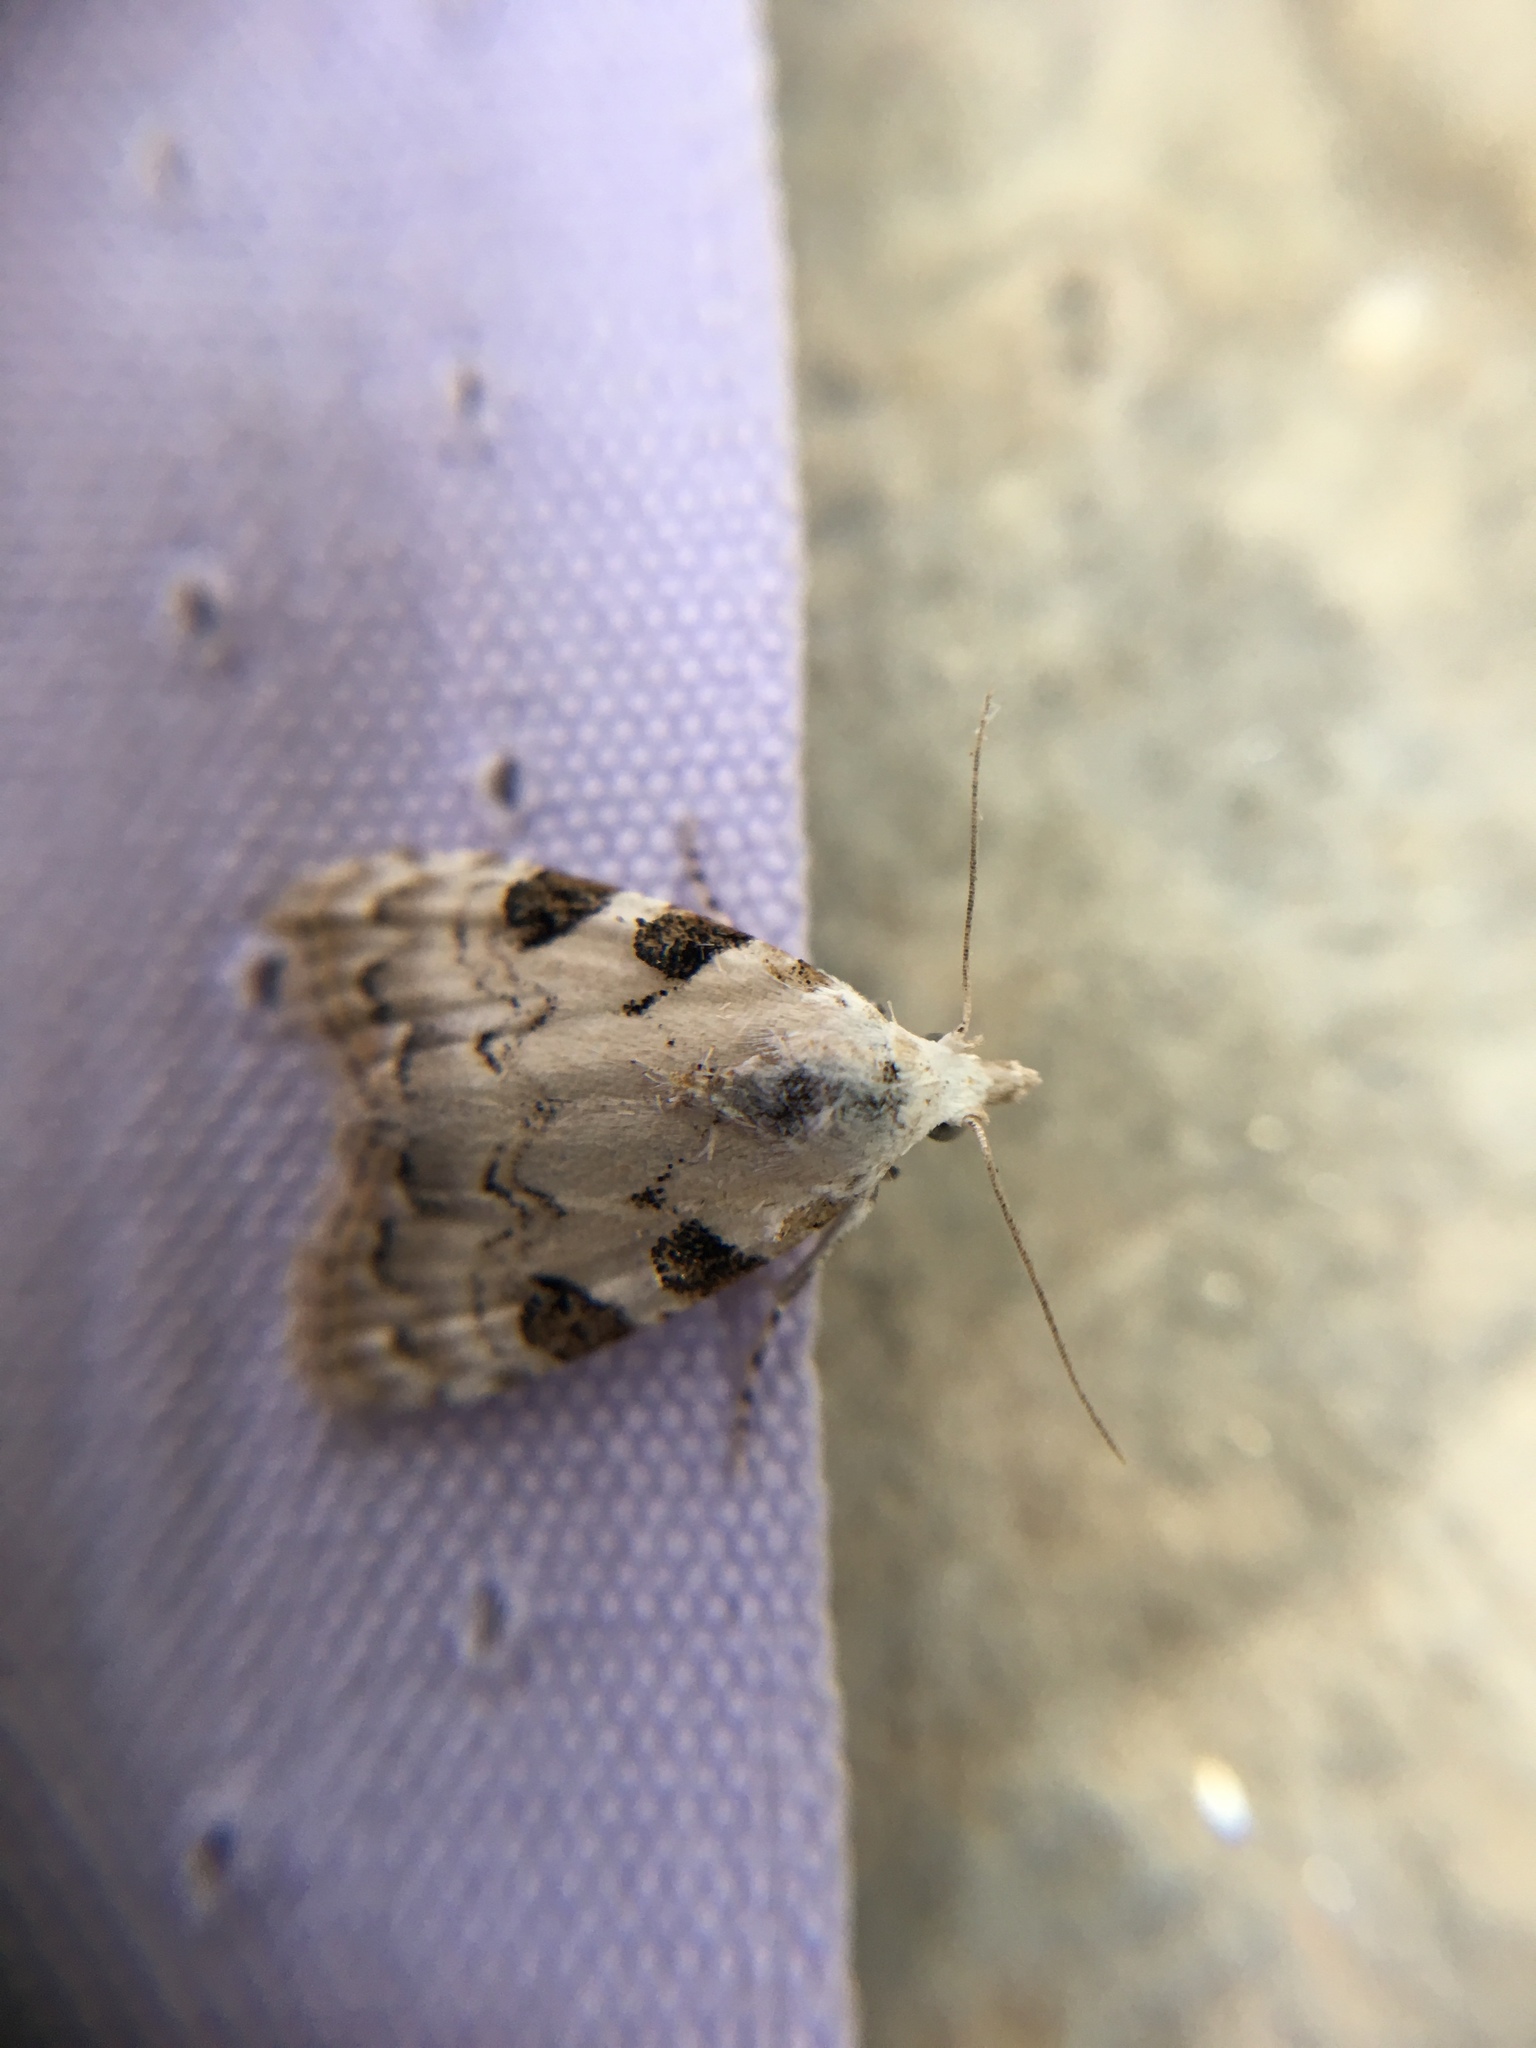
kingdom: Animalia
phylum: Arthropoda
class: Insecta
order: Lepidoptera
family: Nolidae
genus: Nola
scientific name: Nola analis
